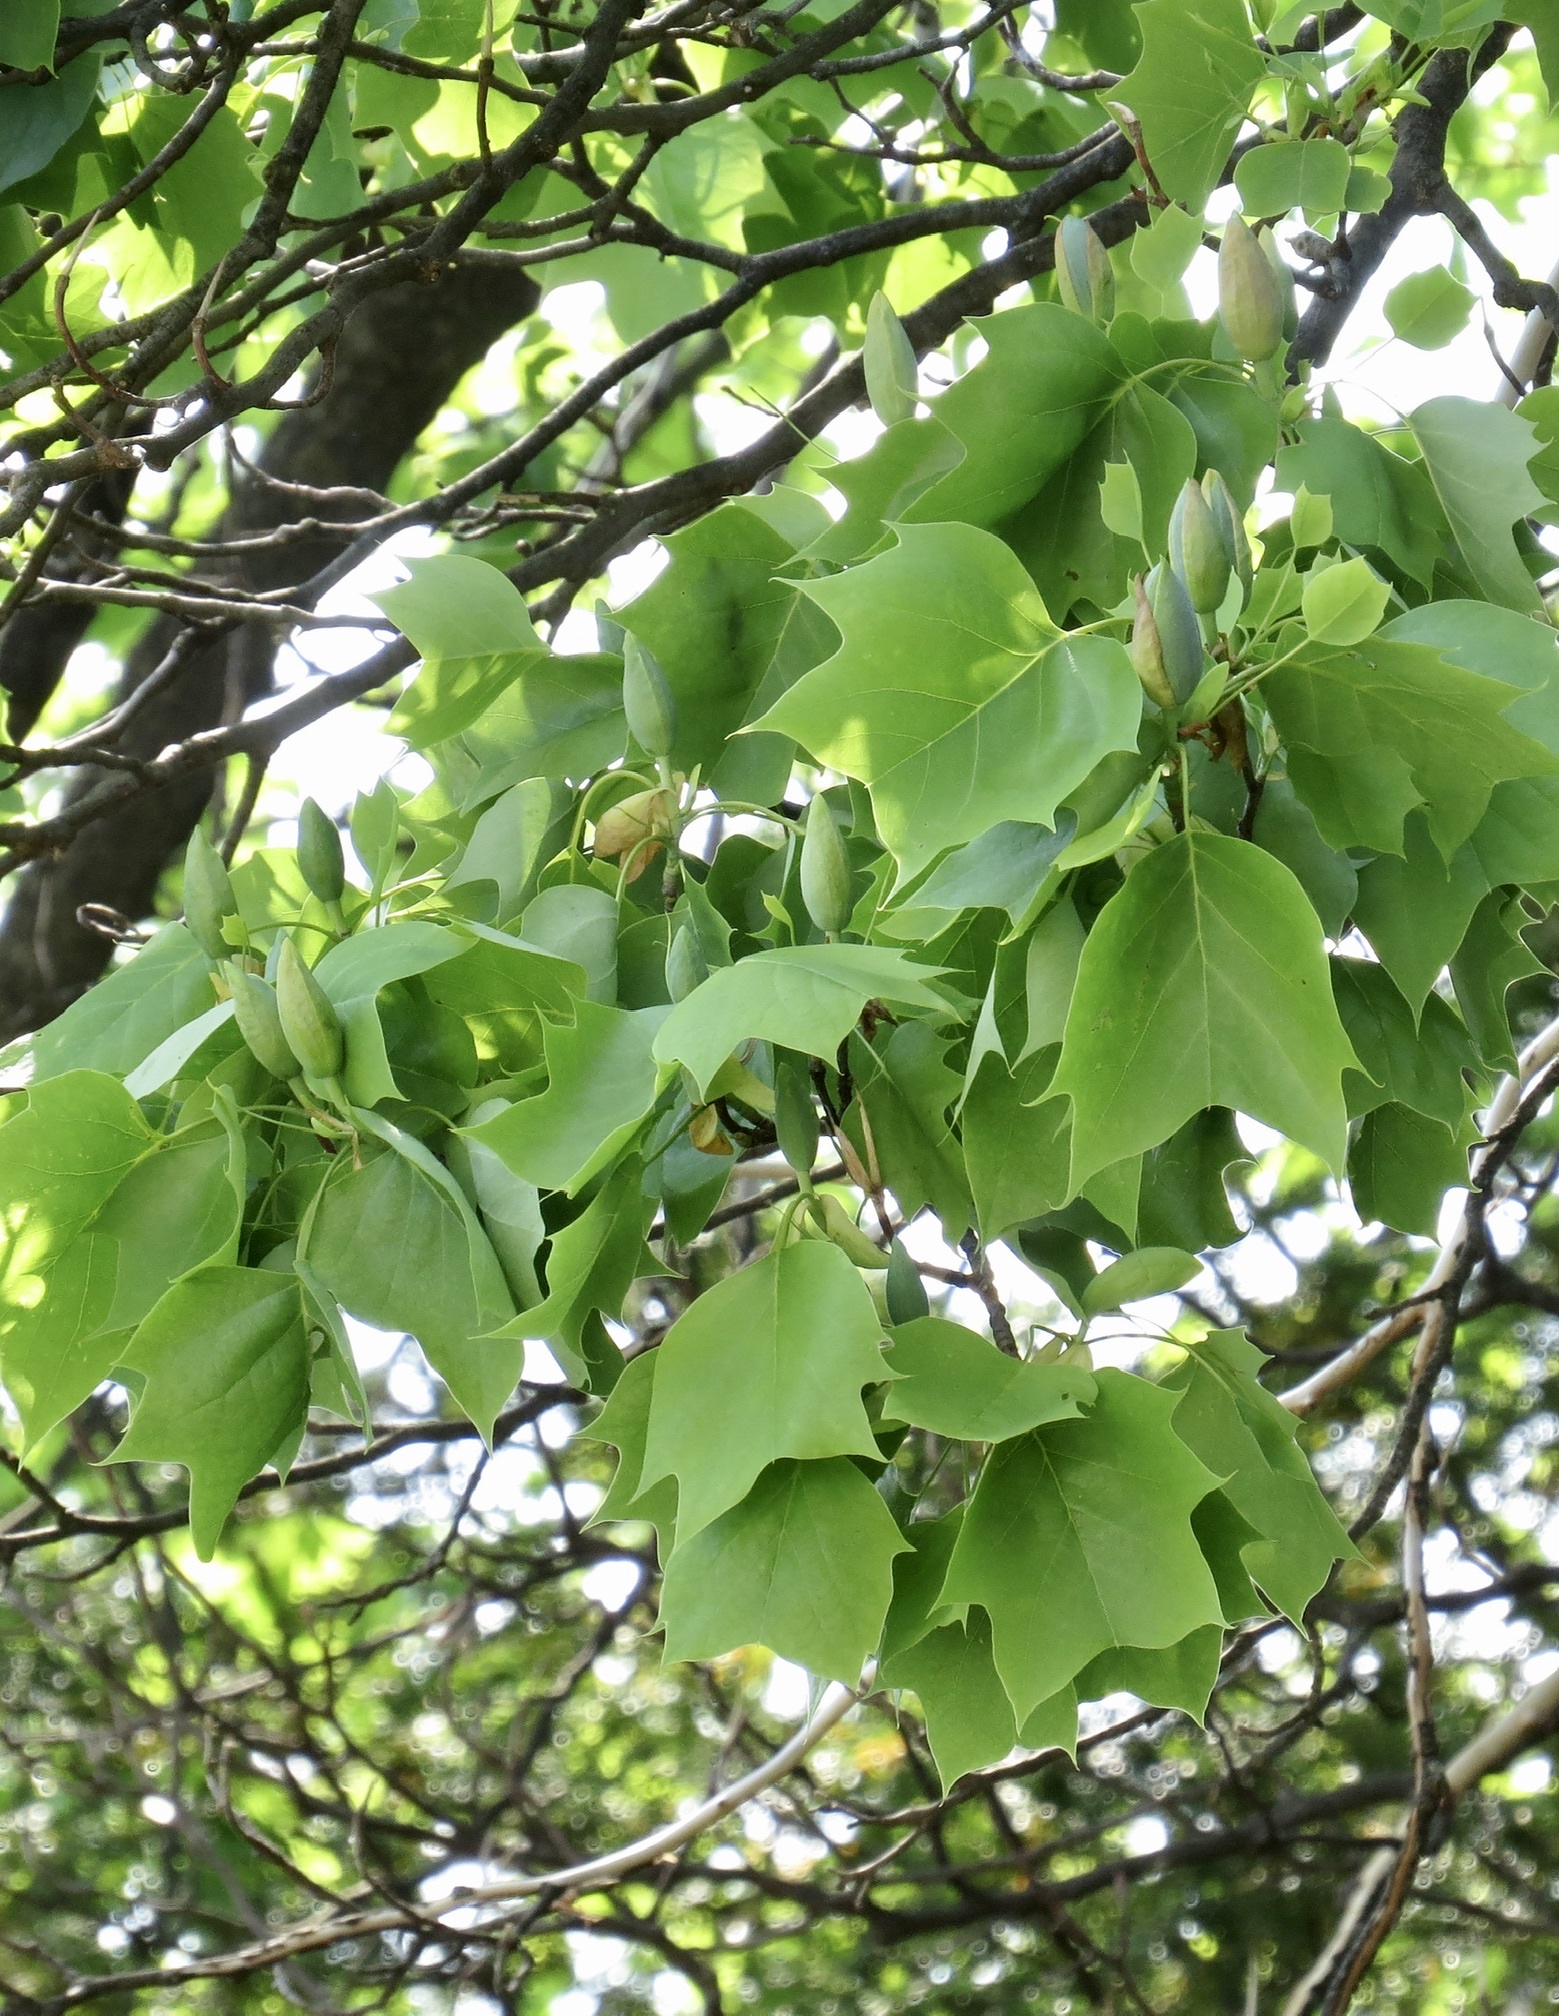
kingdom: Plantae
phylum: Tracheophyta
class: Magnoliopsida
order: Magnoliales
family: Magnoliaceae
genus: Liriodendron
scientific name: Liriodendron tulipifera
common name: Tulip tree
